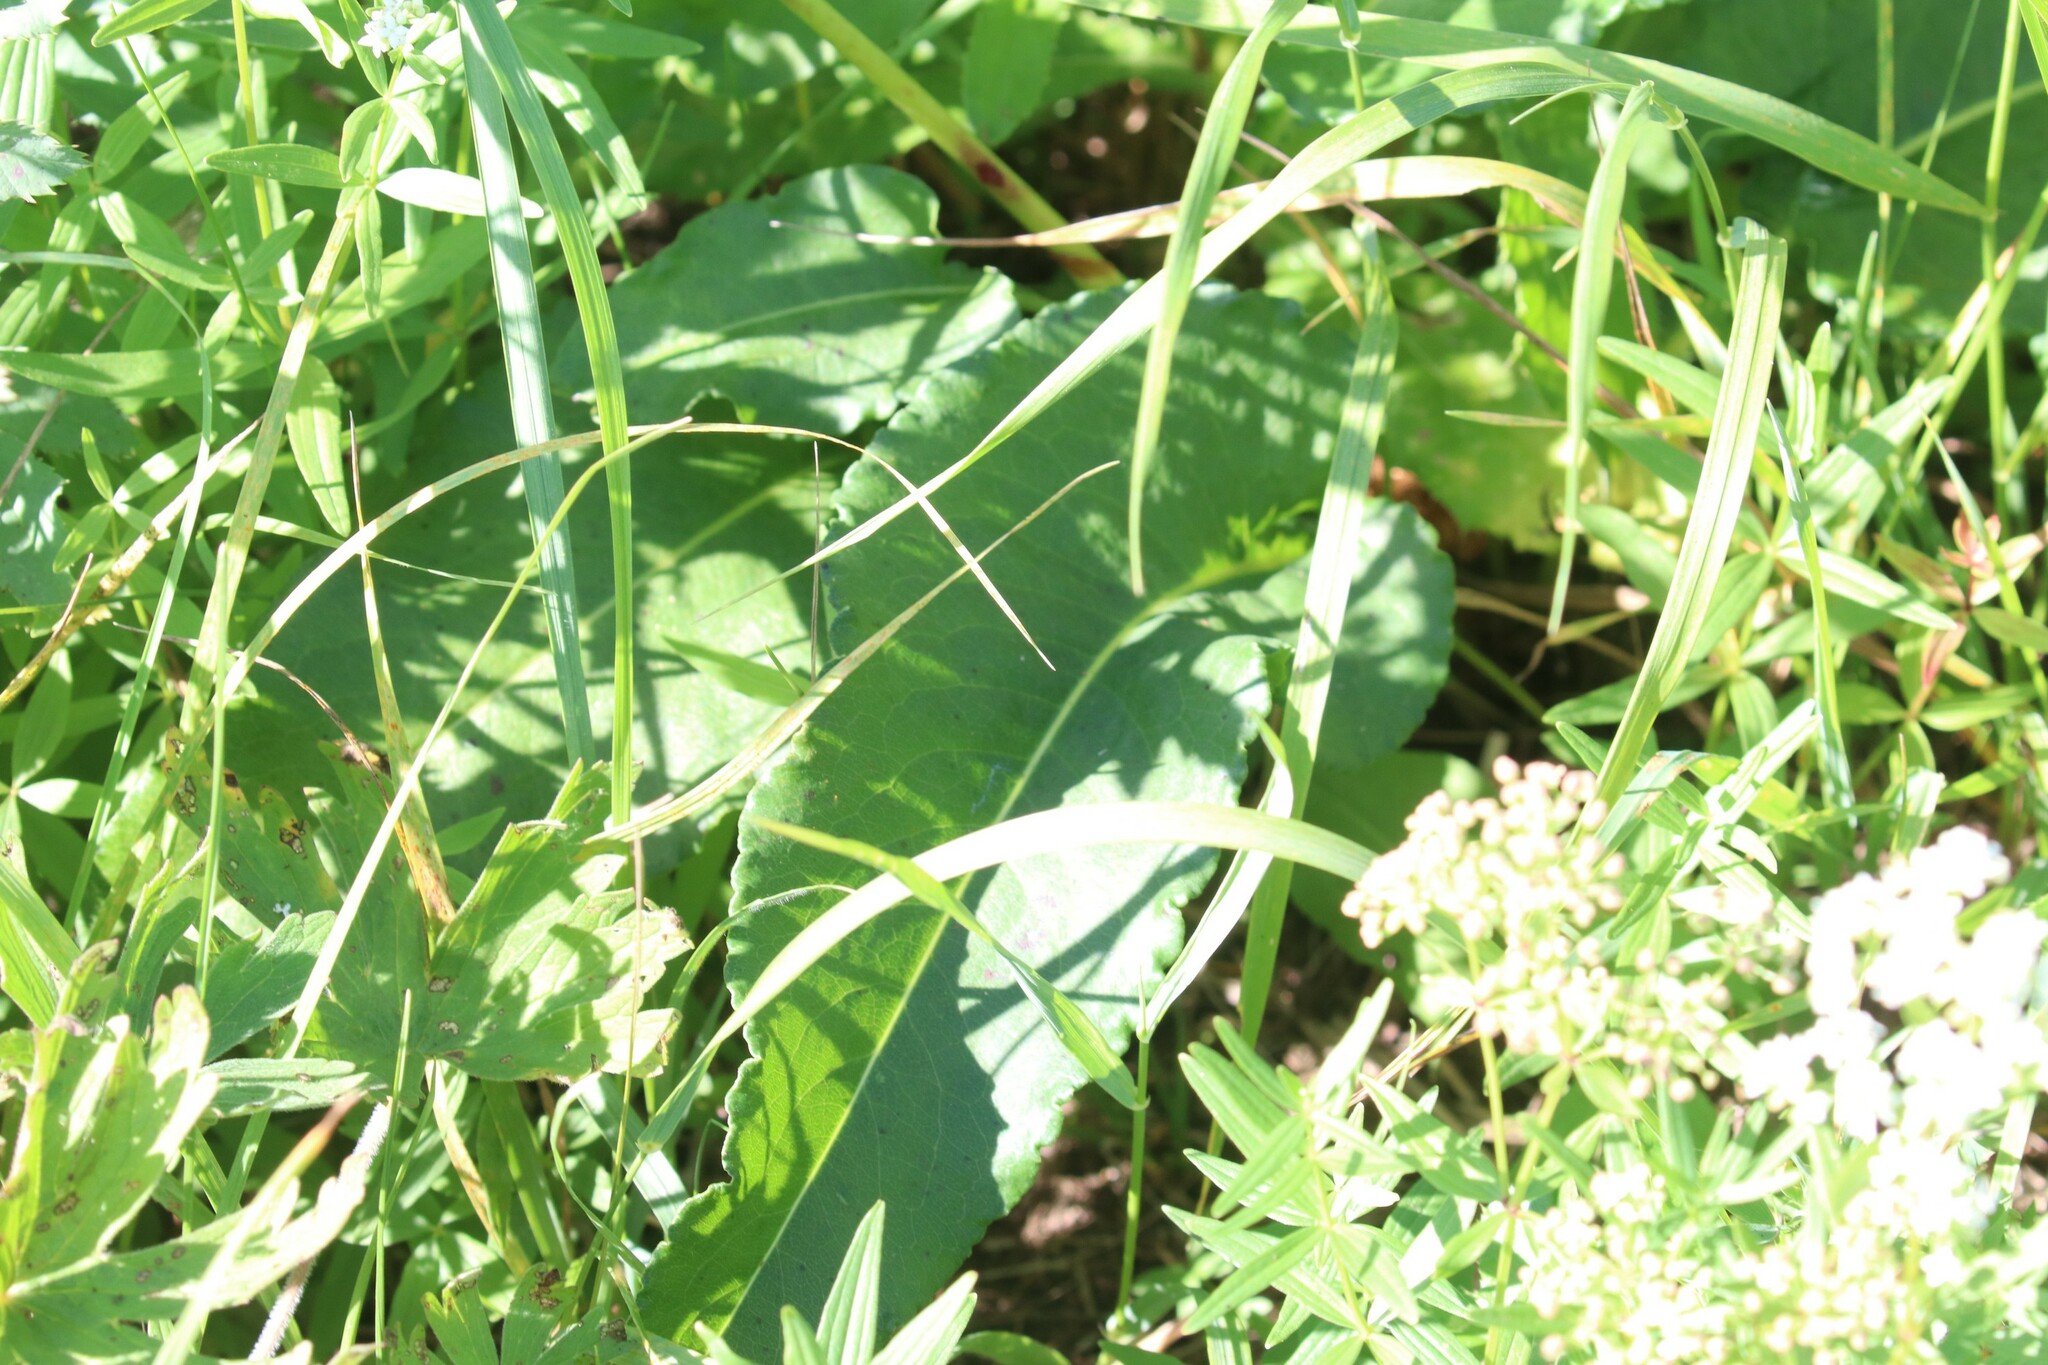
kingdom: Plantae
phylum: Tracheophyta
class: Magnoliopsida
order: Caryophyllales
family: Polygonaceae
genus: Bistorta
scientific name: Bistorta officinalis
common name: Common bistort
